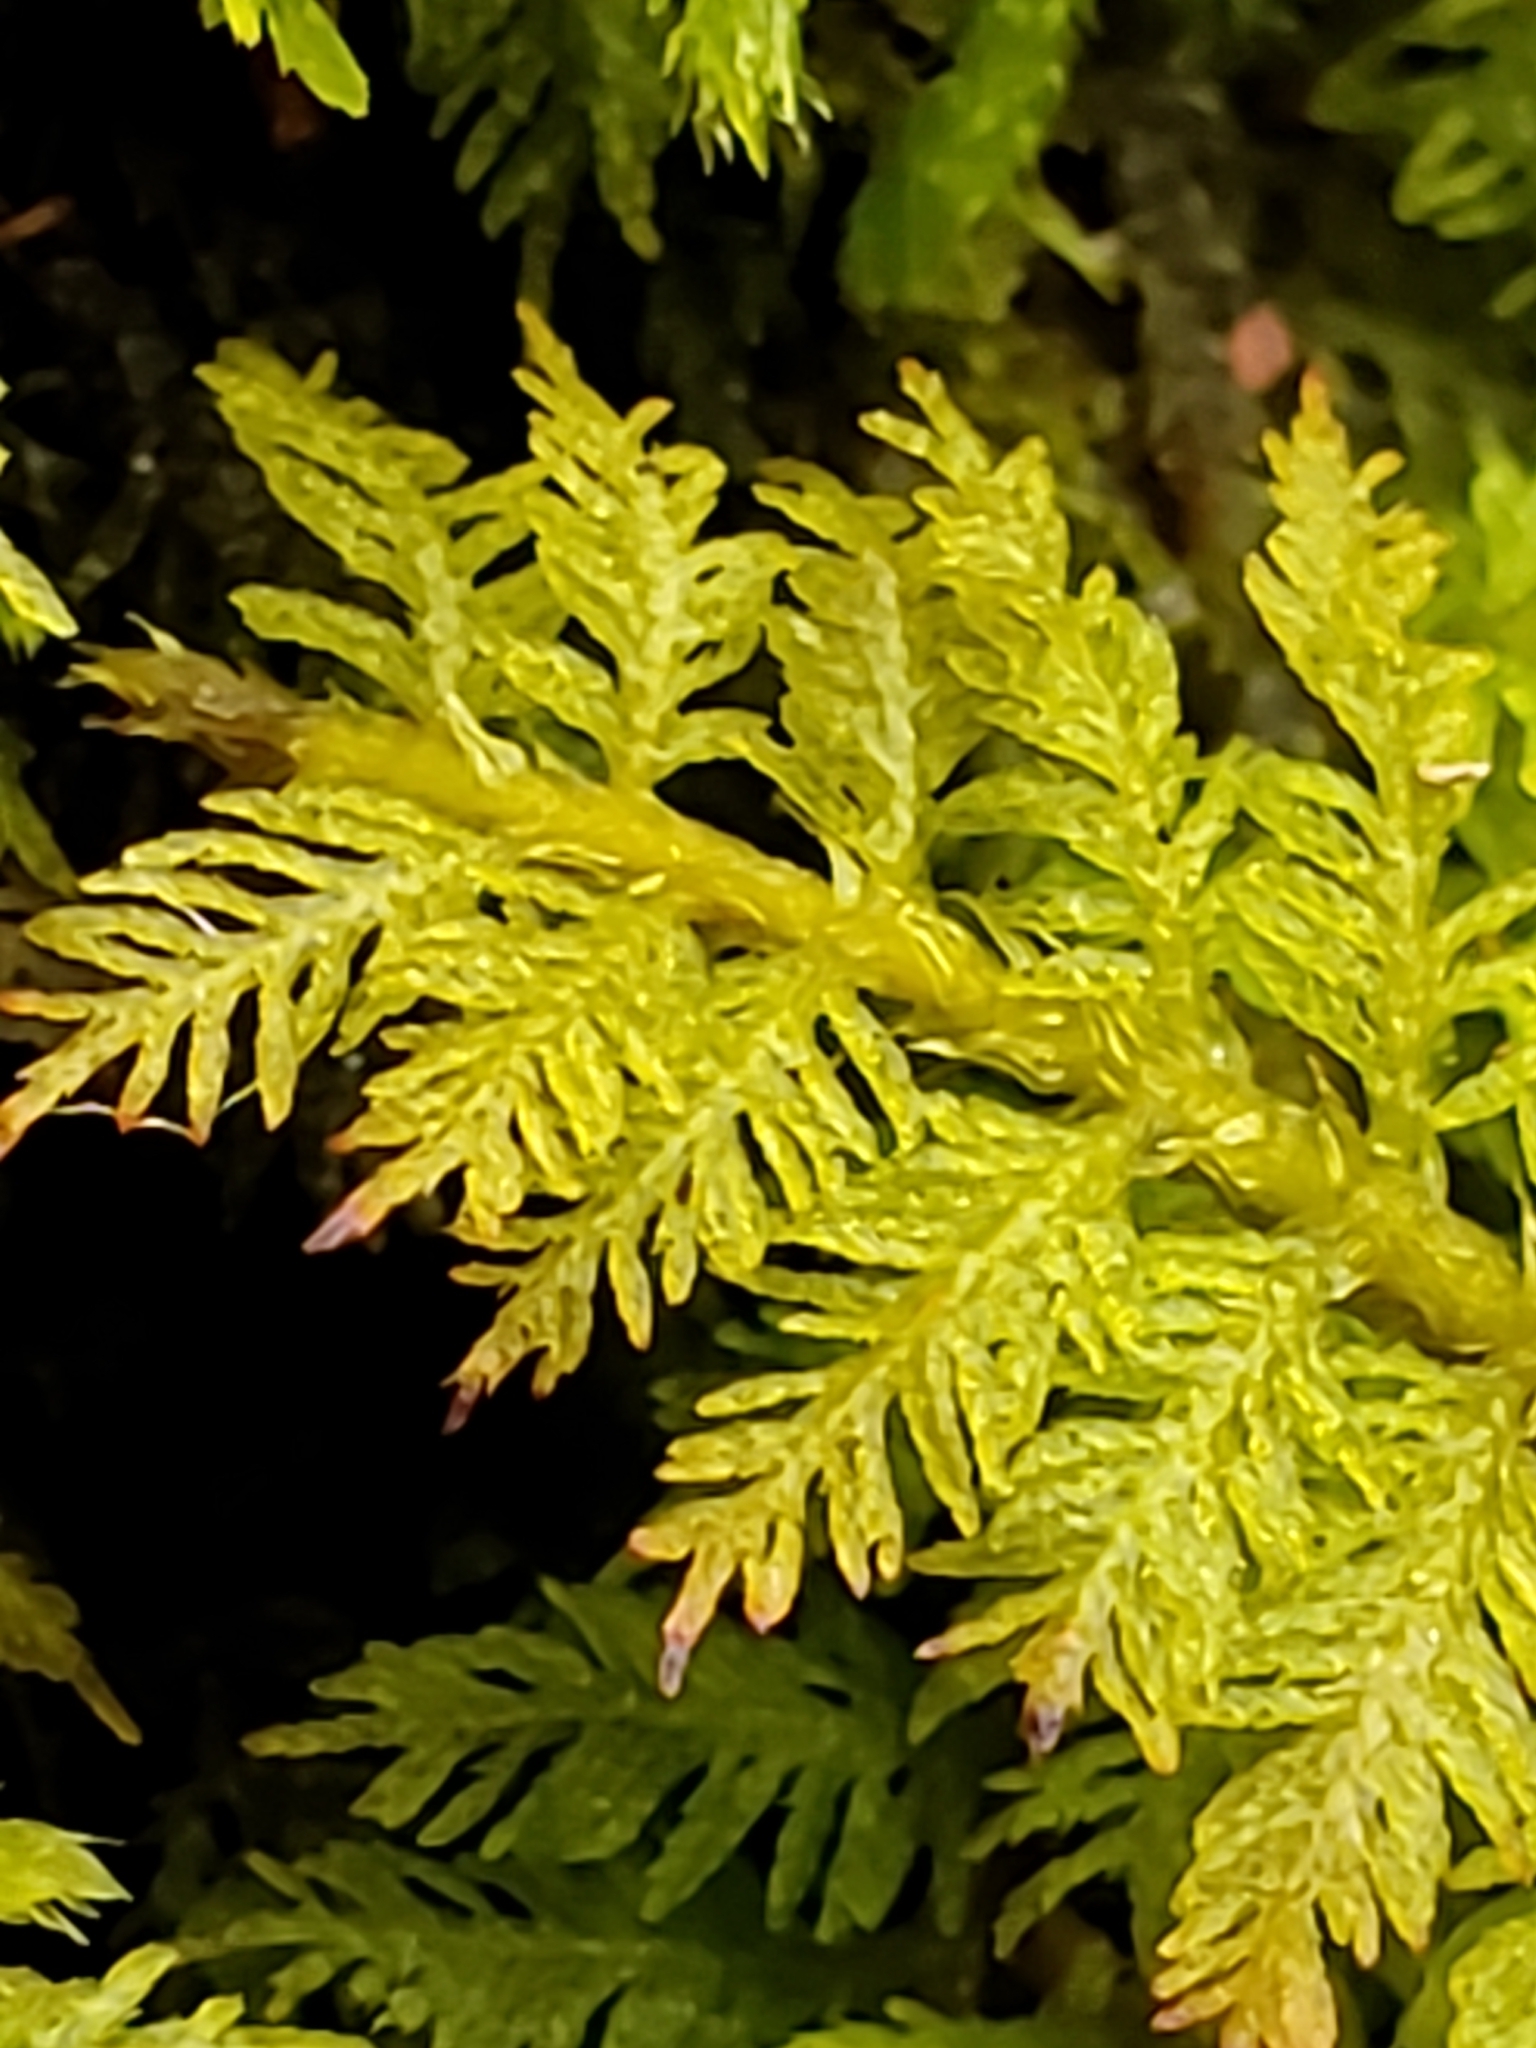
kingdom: Plantae
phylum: Bryophyta
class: Bryopsida
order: Hypnales
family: Thuidiaceae
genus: Thuidium
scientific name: Thuidium delicatulum
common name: Delicate fern moss
